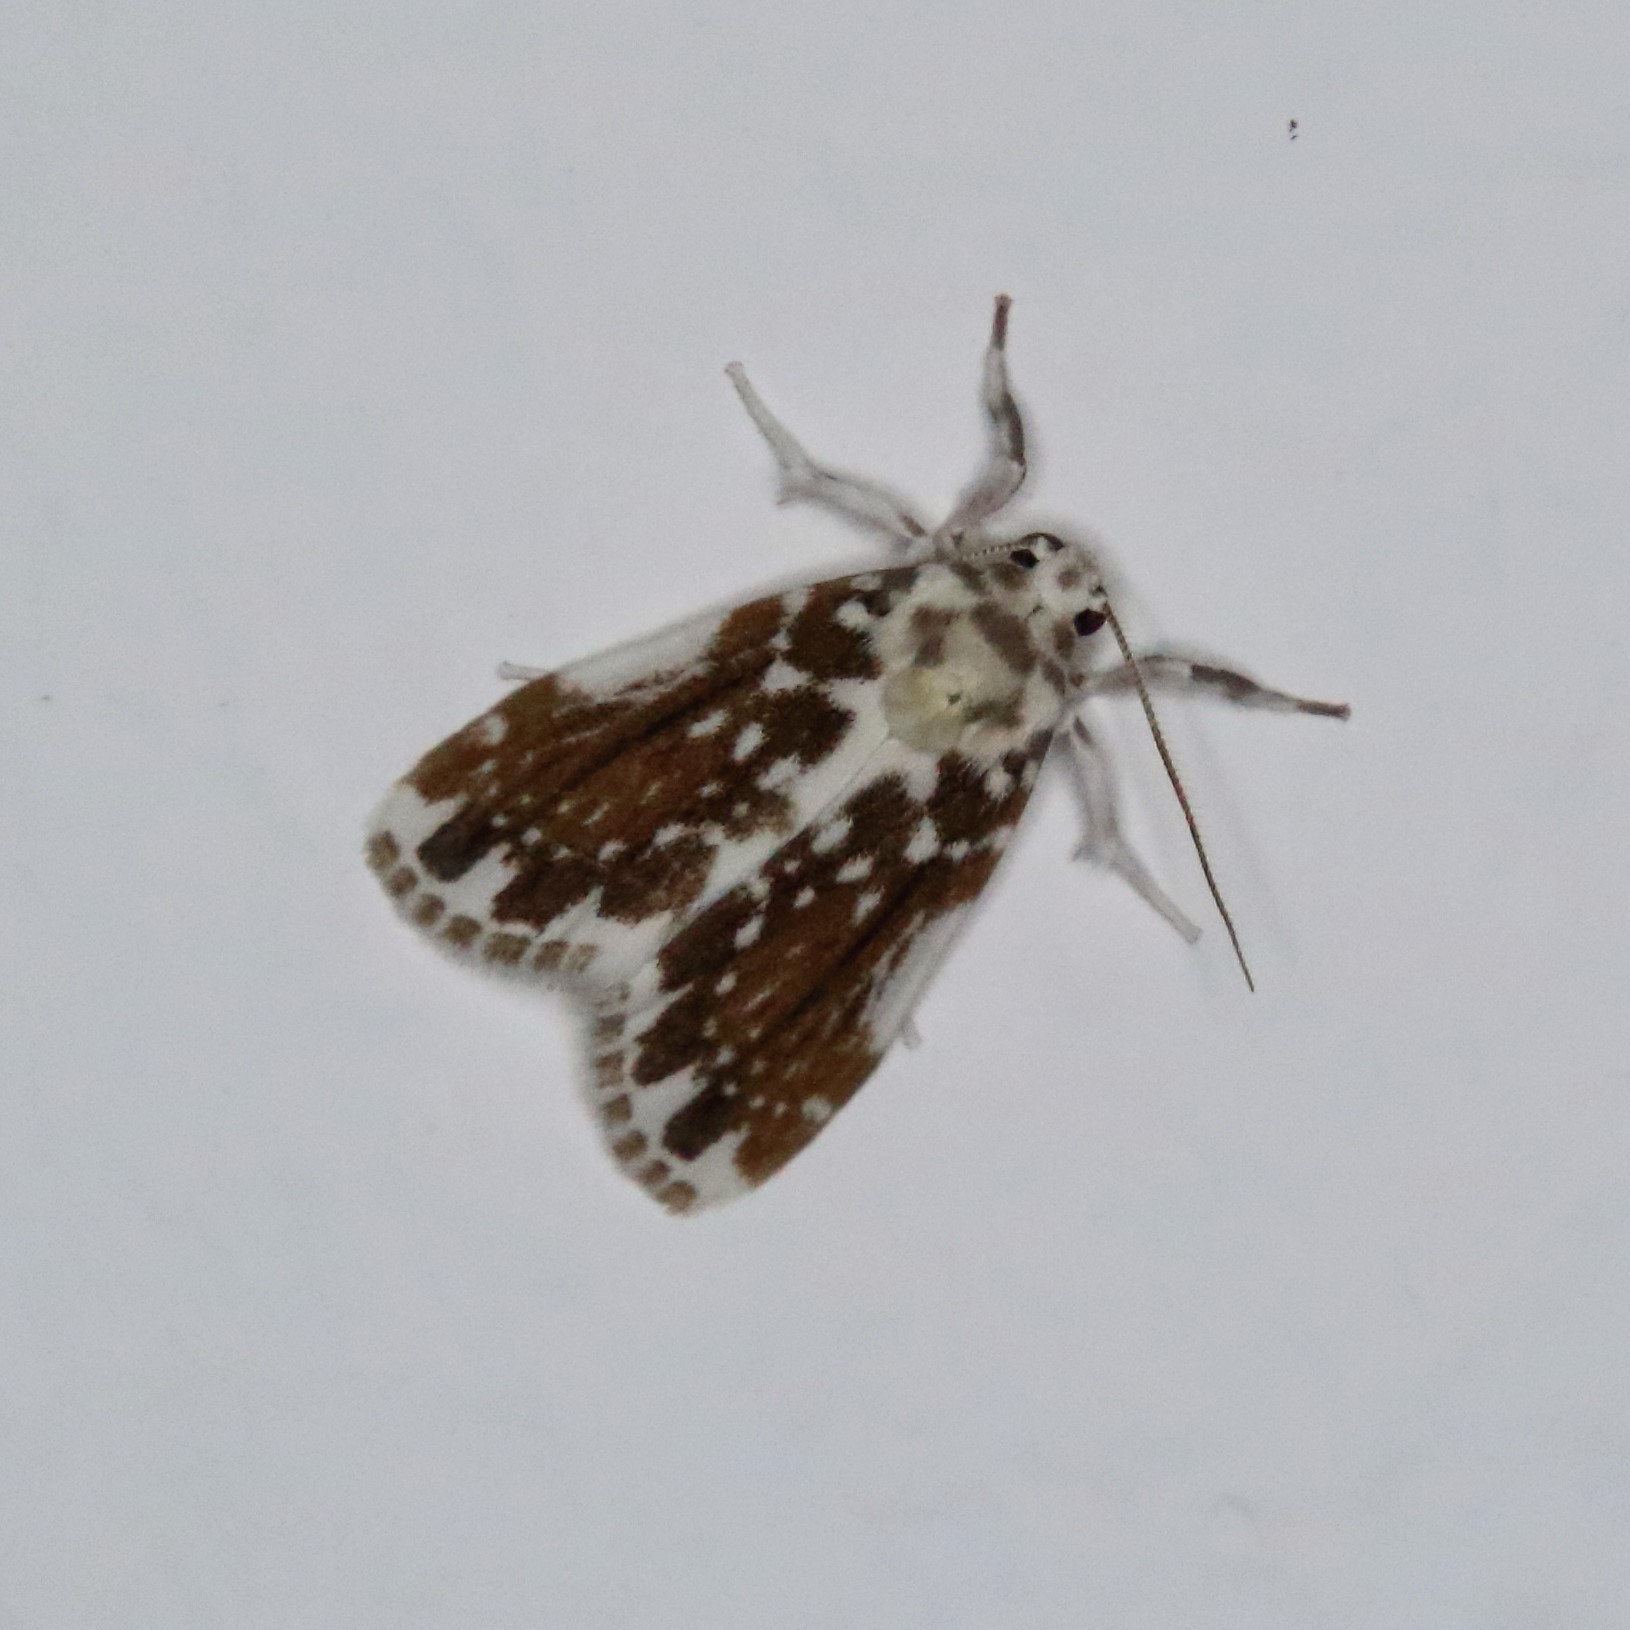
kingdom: Animalia
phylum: Arthropoda
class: Insecta
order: Lepidoptera
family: Erebidae
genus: Pseudoadites
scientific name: Pseudoadites frigida
